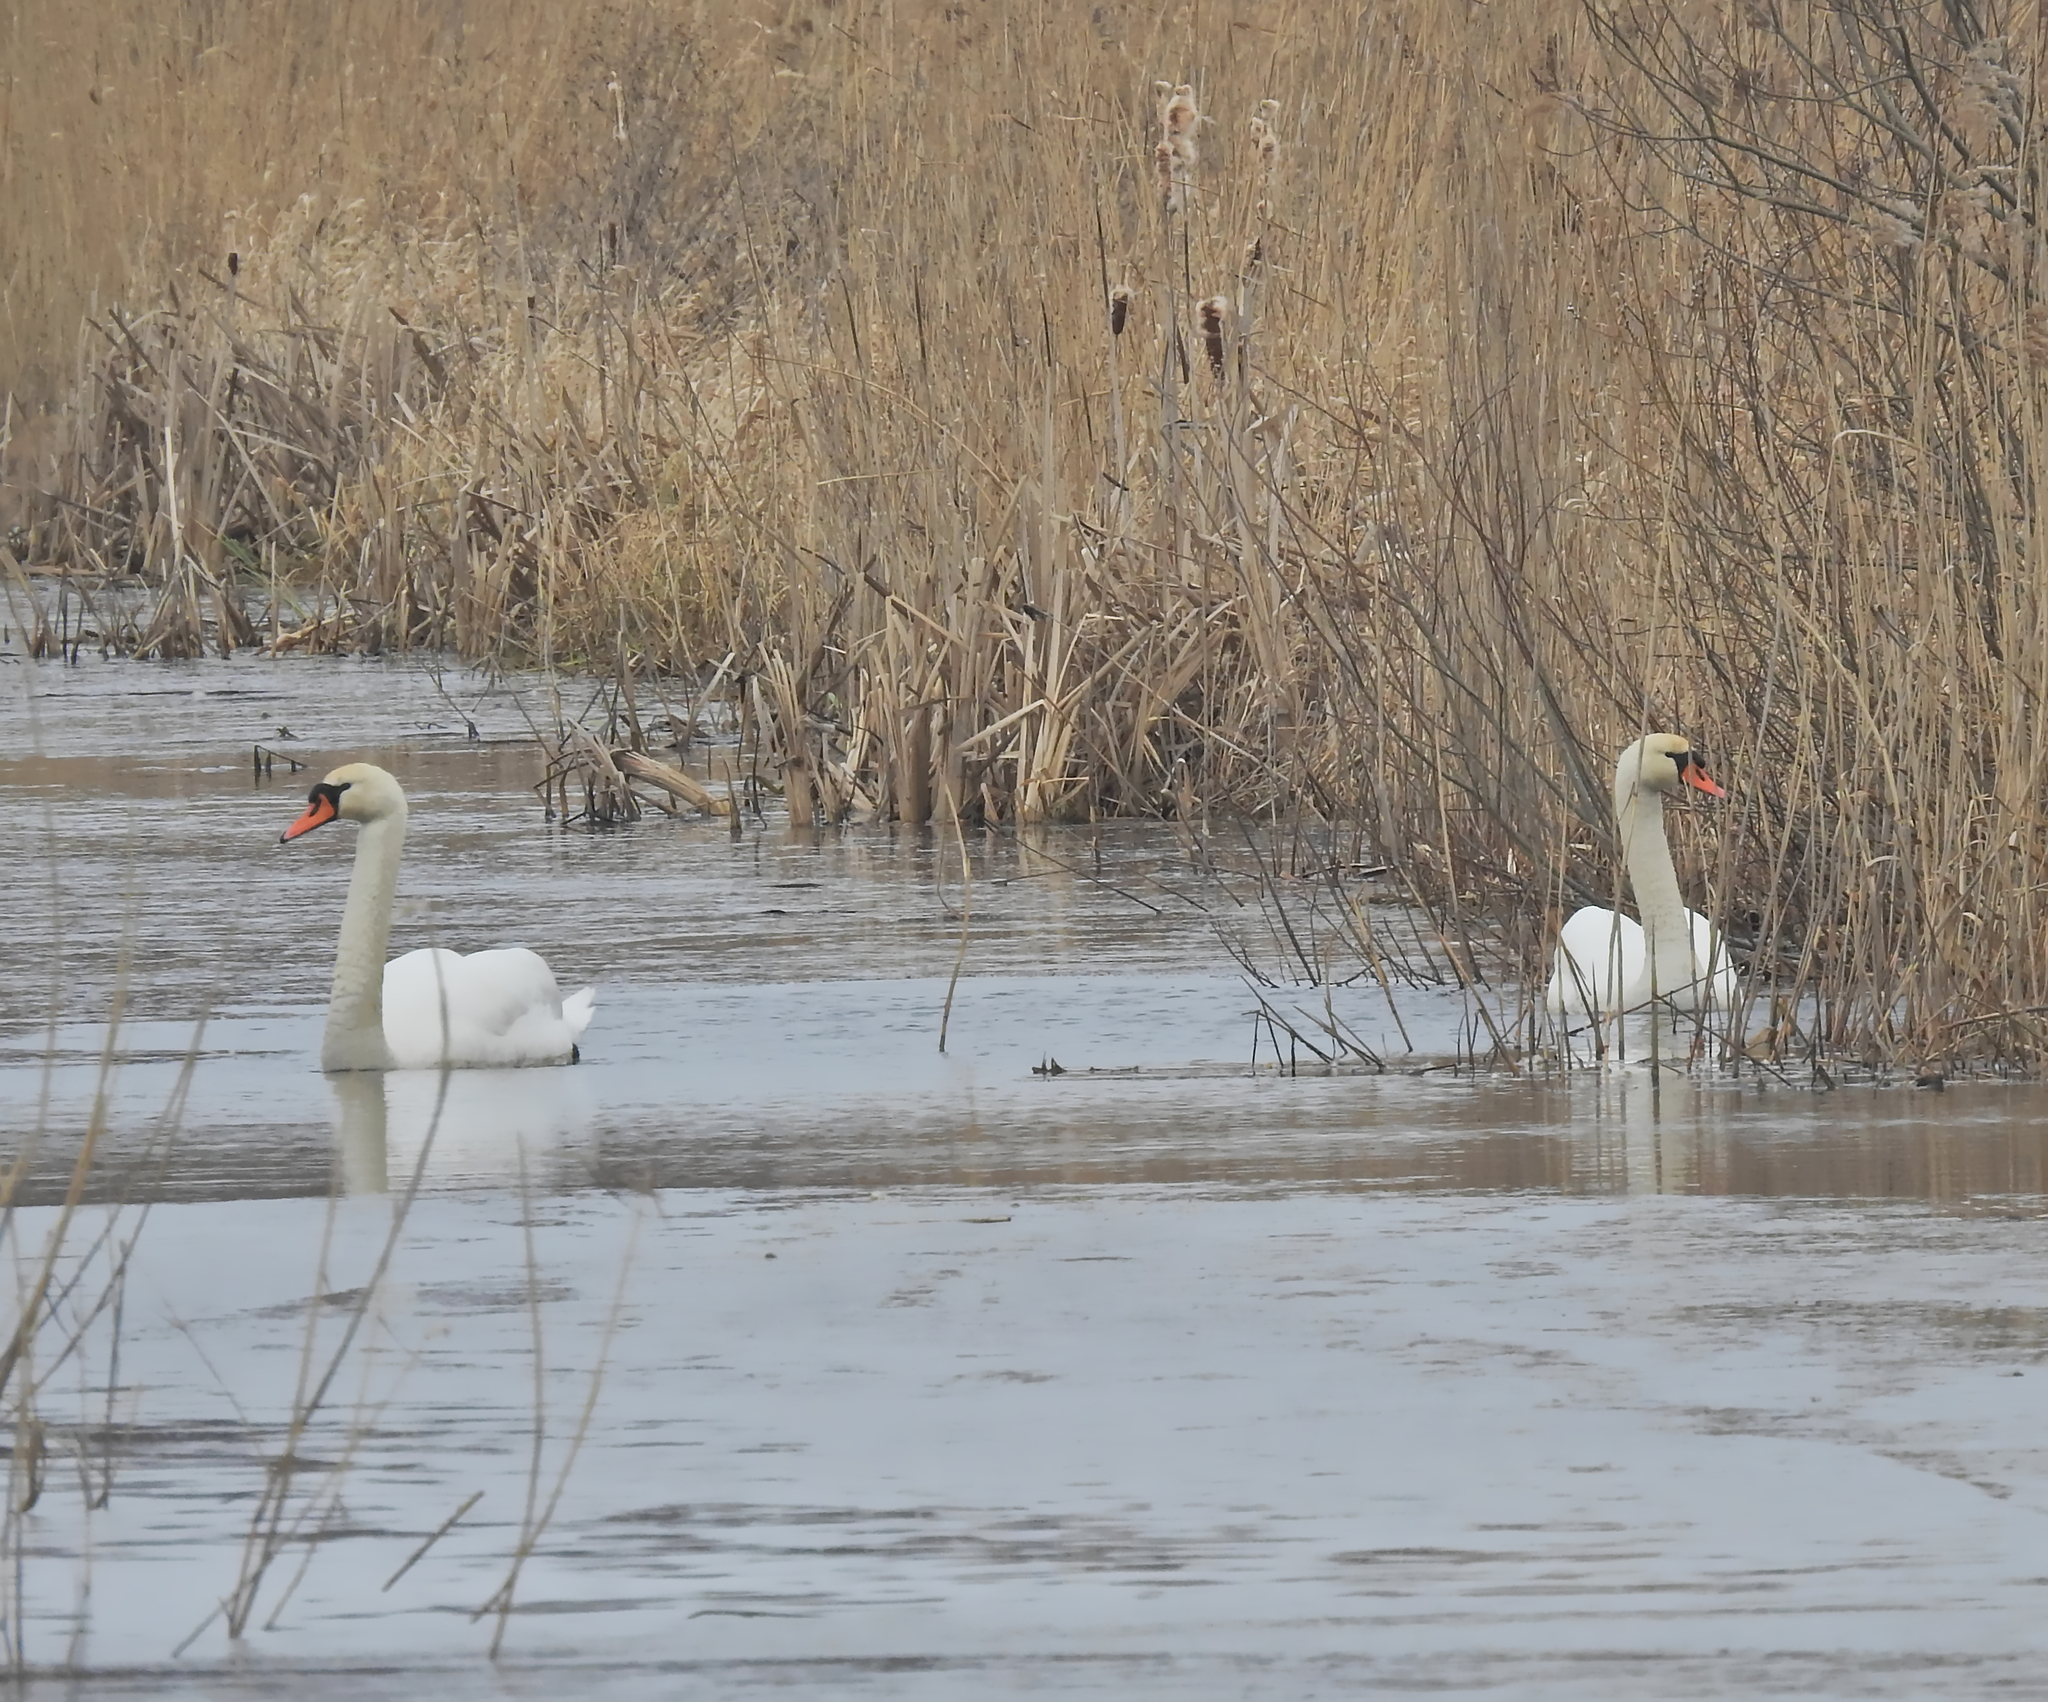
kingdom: Animalia
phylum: Chordata
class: Aves
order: Anseriformes
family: Anatidae
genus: Cygnus
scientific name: Cygnus olor
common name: Mute swan
